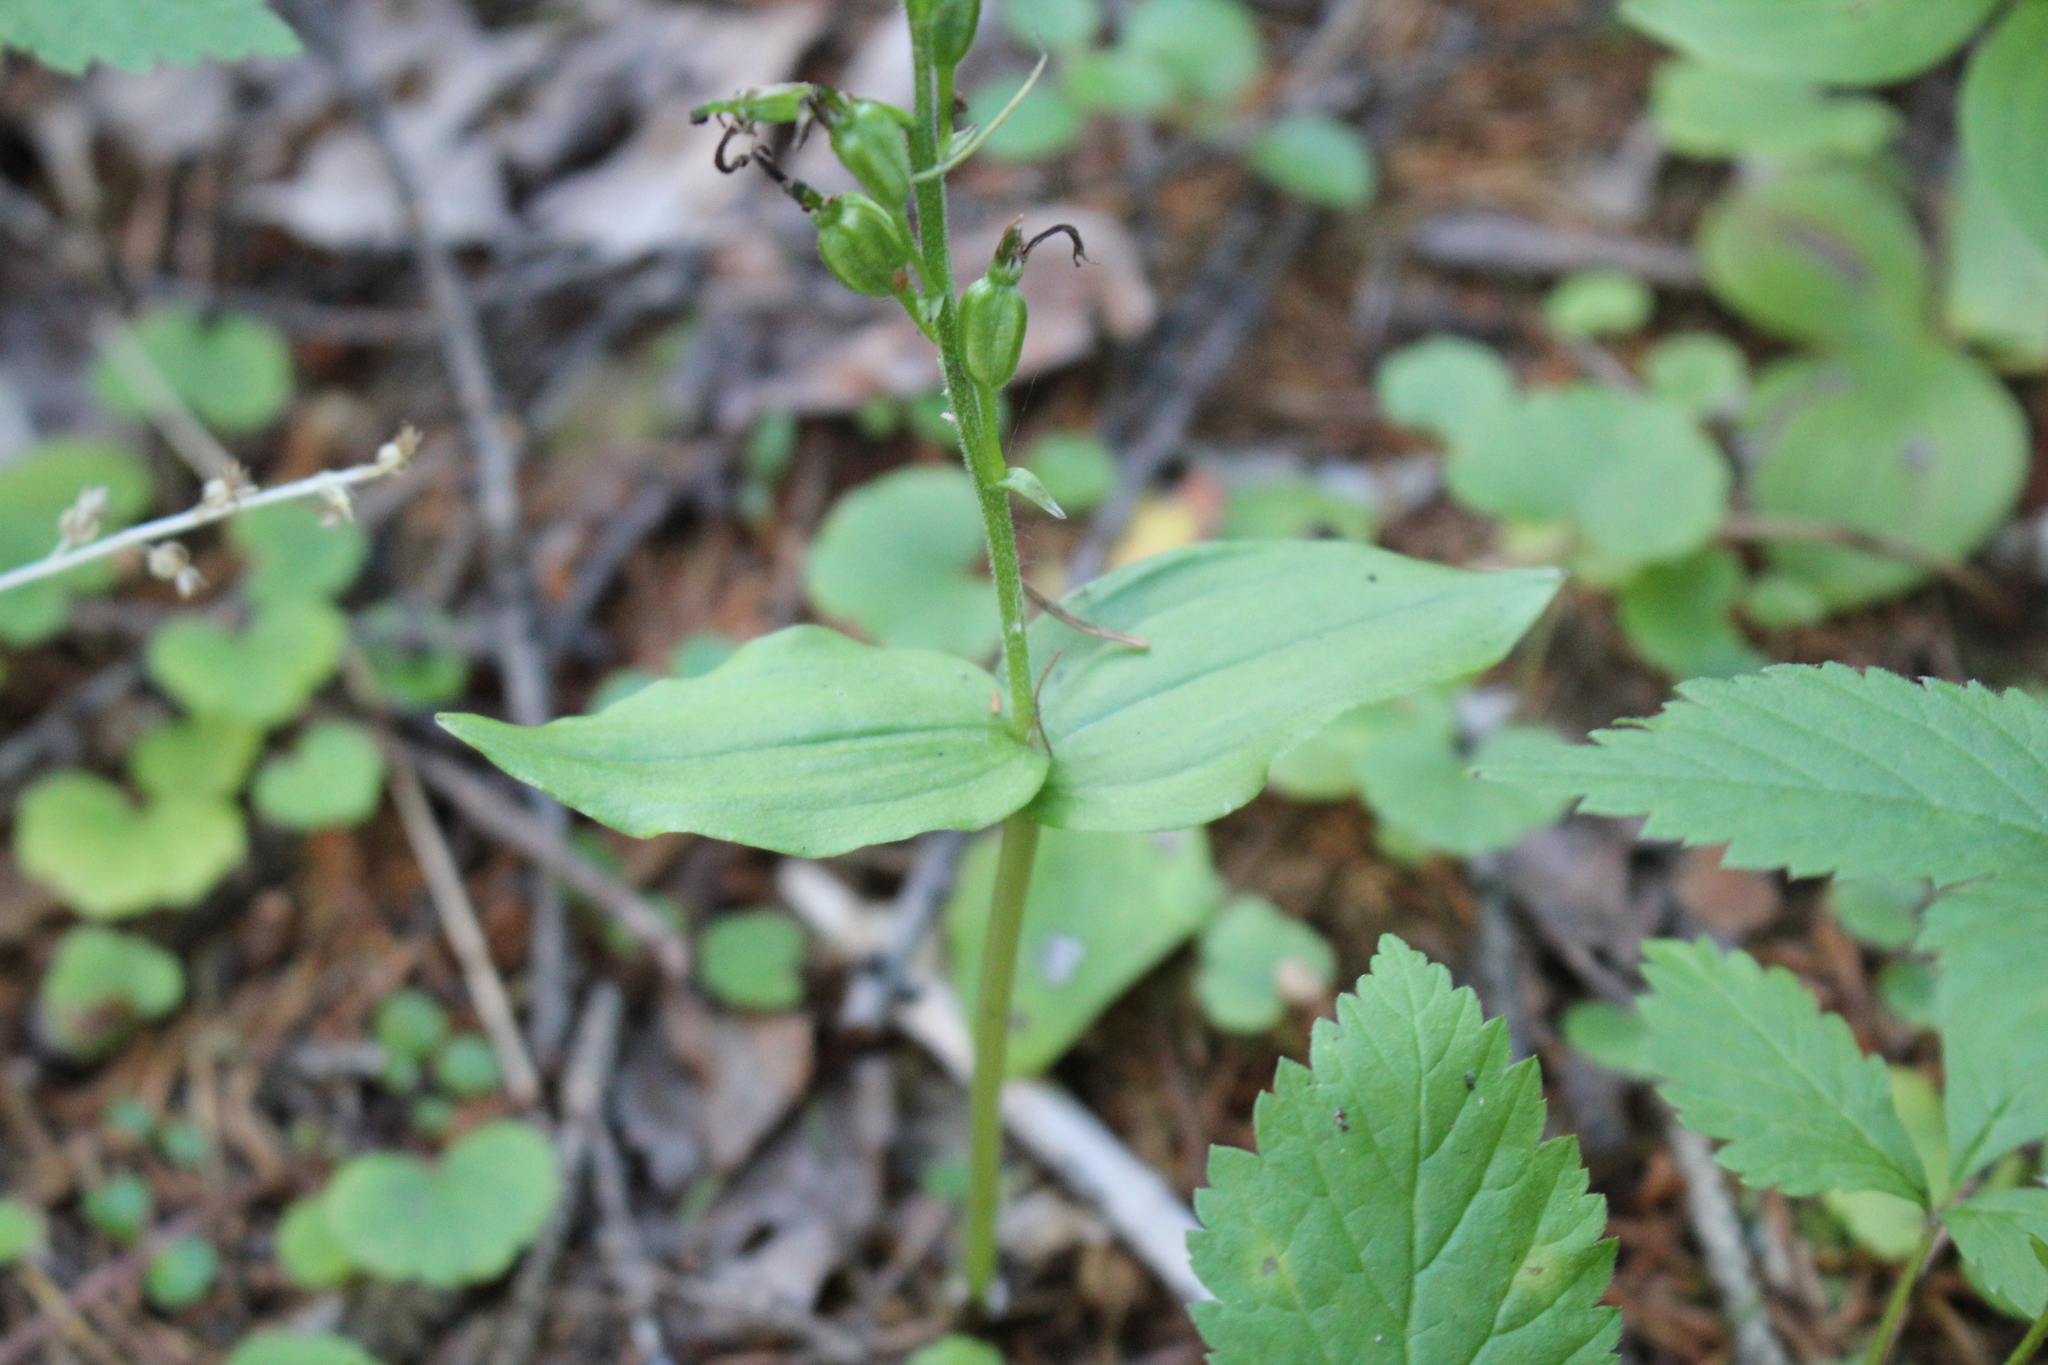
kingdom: Plantae
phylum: Tracheophyta
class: Liliopsida
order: Asparagales
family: Orchidaceae
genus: Neottia
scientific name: Neottia borealis
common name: Northern twayblade
